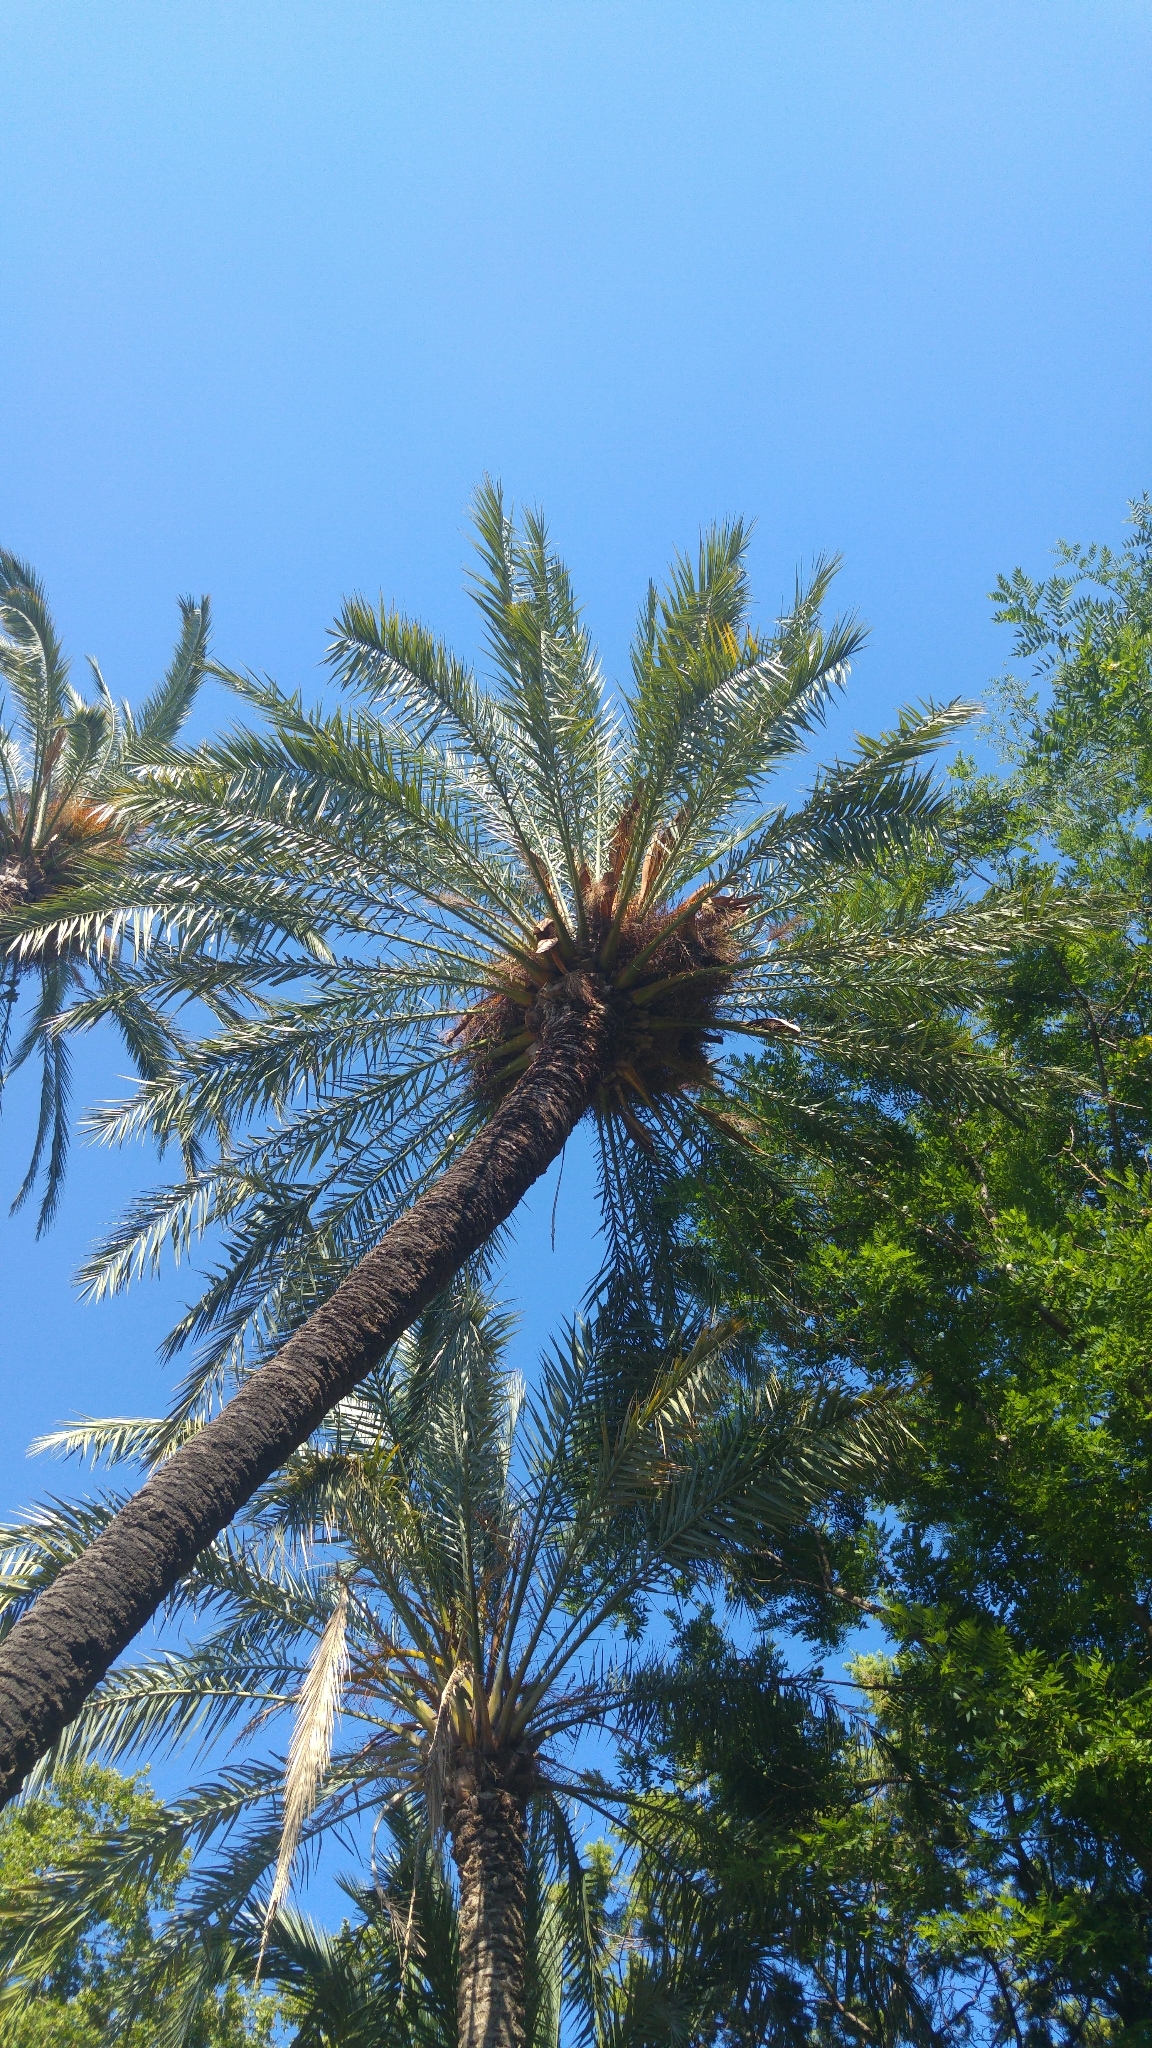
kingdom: Animalia
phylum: Chordata
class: Aves
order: Psittaciformes
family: Psittacidae
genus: Myiopsitta
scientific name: Myiopsitta monachus
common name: Monk parakeet
